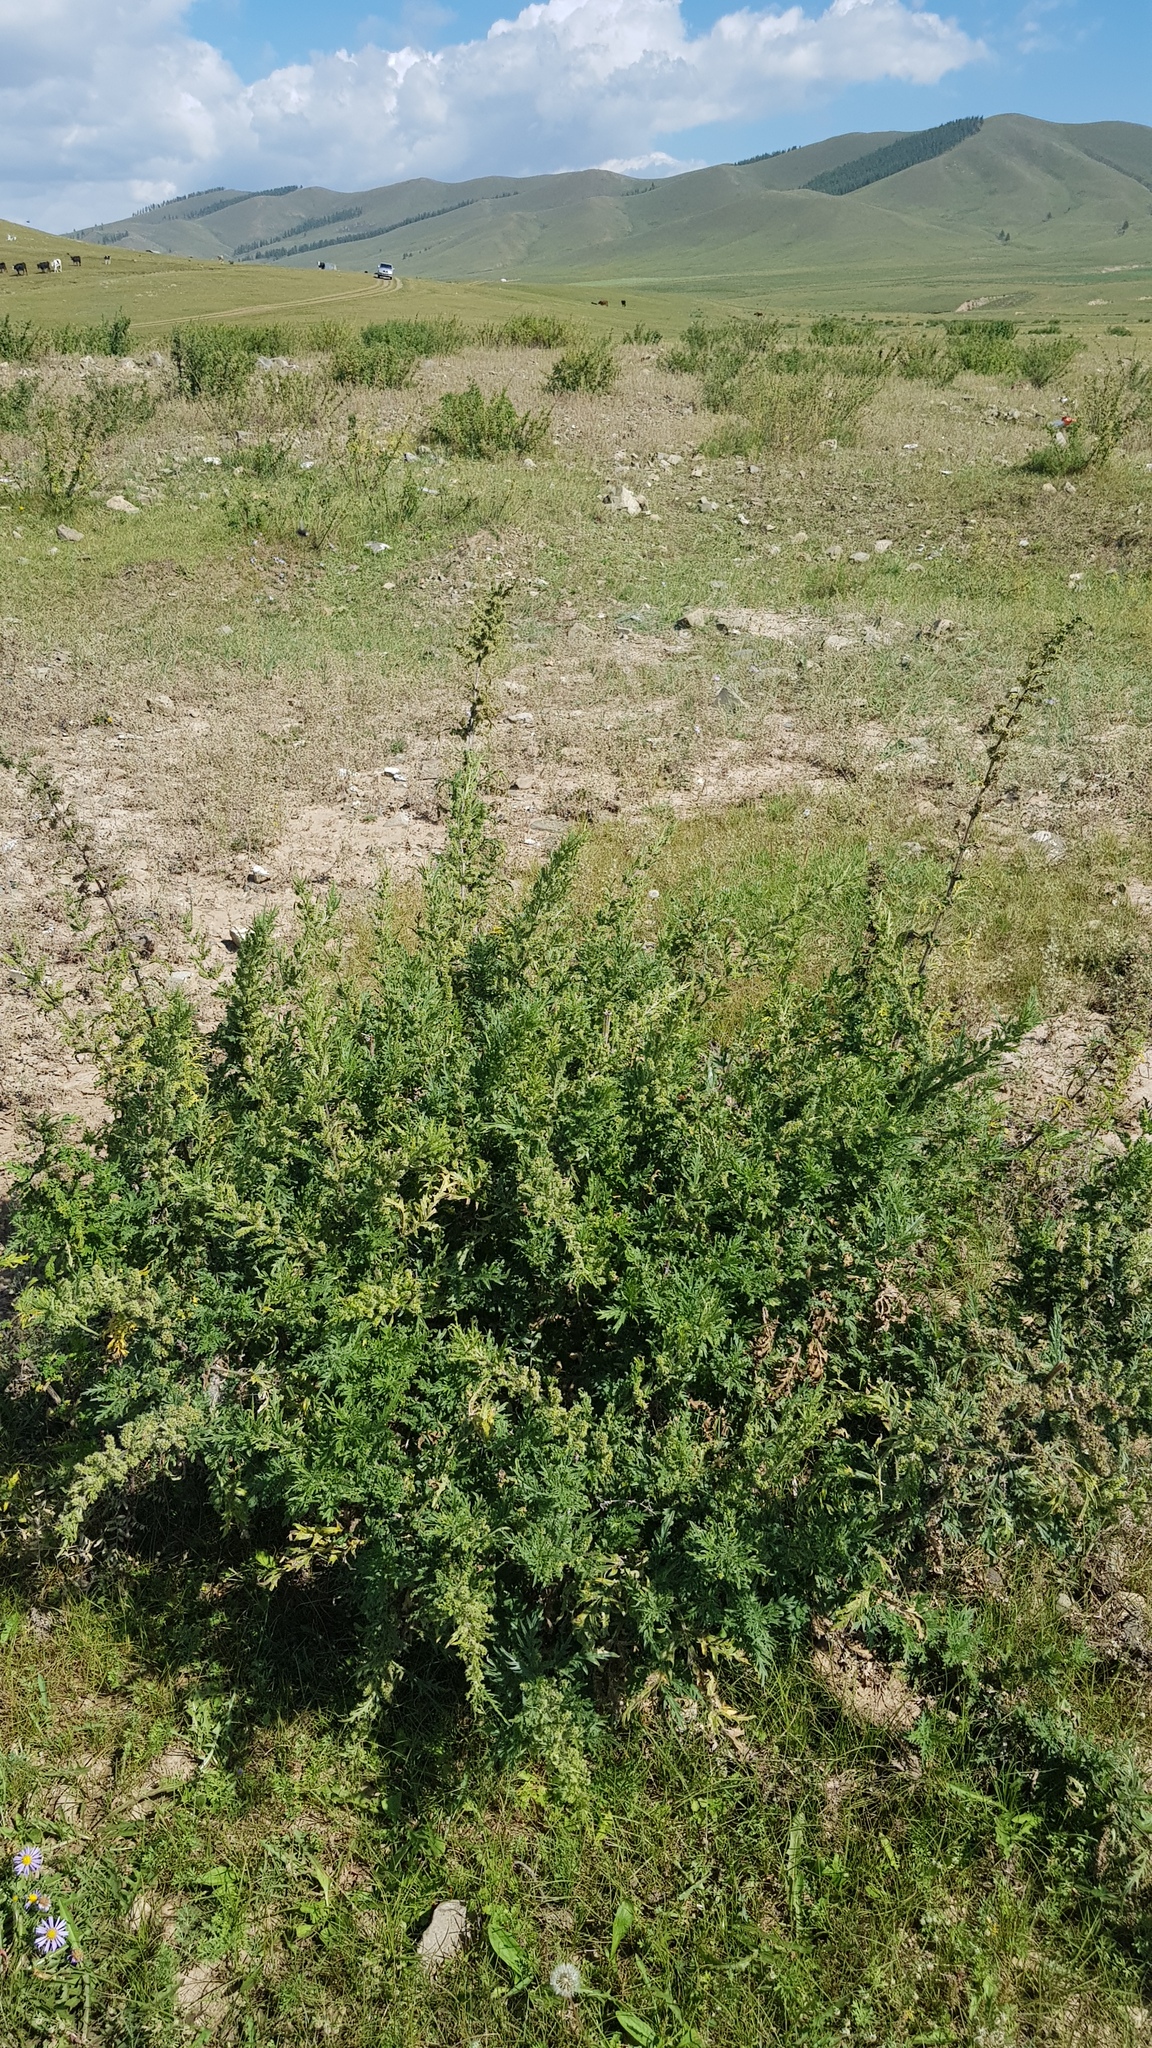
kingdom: Plantae
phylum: Tracheophyta
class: Magnoliopsida
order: Rosales
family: Urticaceae
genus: Urtica
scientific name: Urtica cannabina
